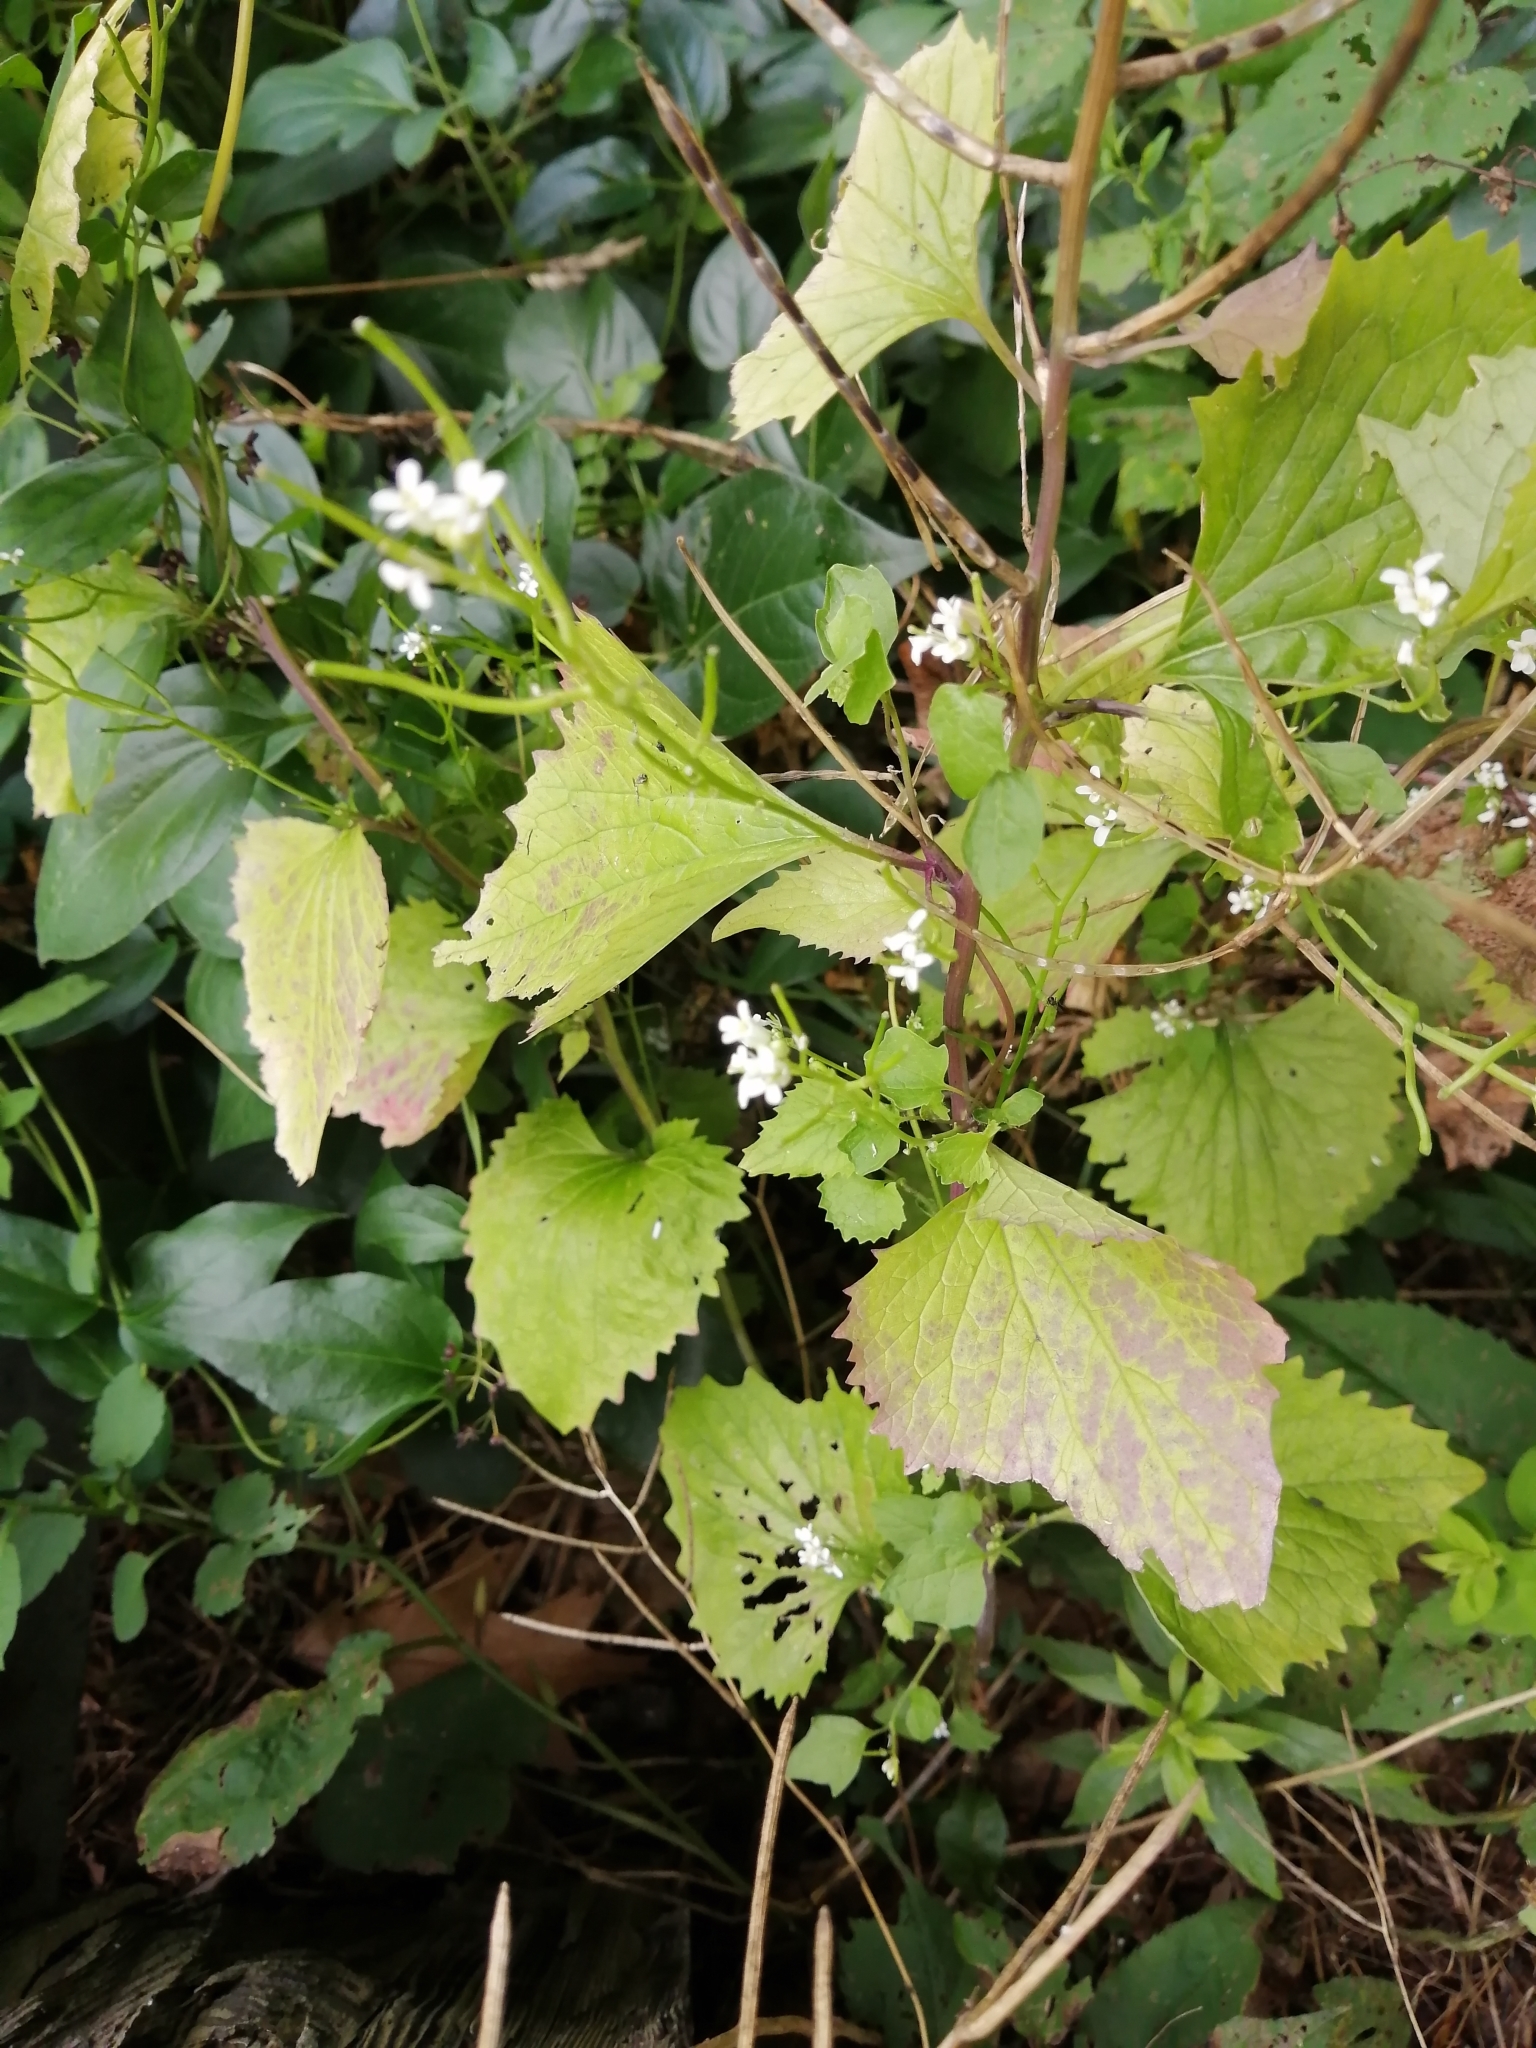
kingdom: Plantae
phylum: Tracheophyta
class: Magnoliopsida
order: Brassicales
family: Brassicaceae
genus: Alliaria
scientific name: Alliaria petiolata
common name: Garlic mustard
